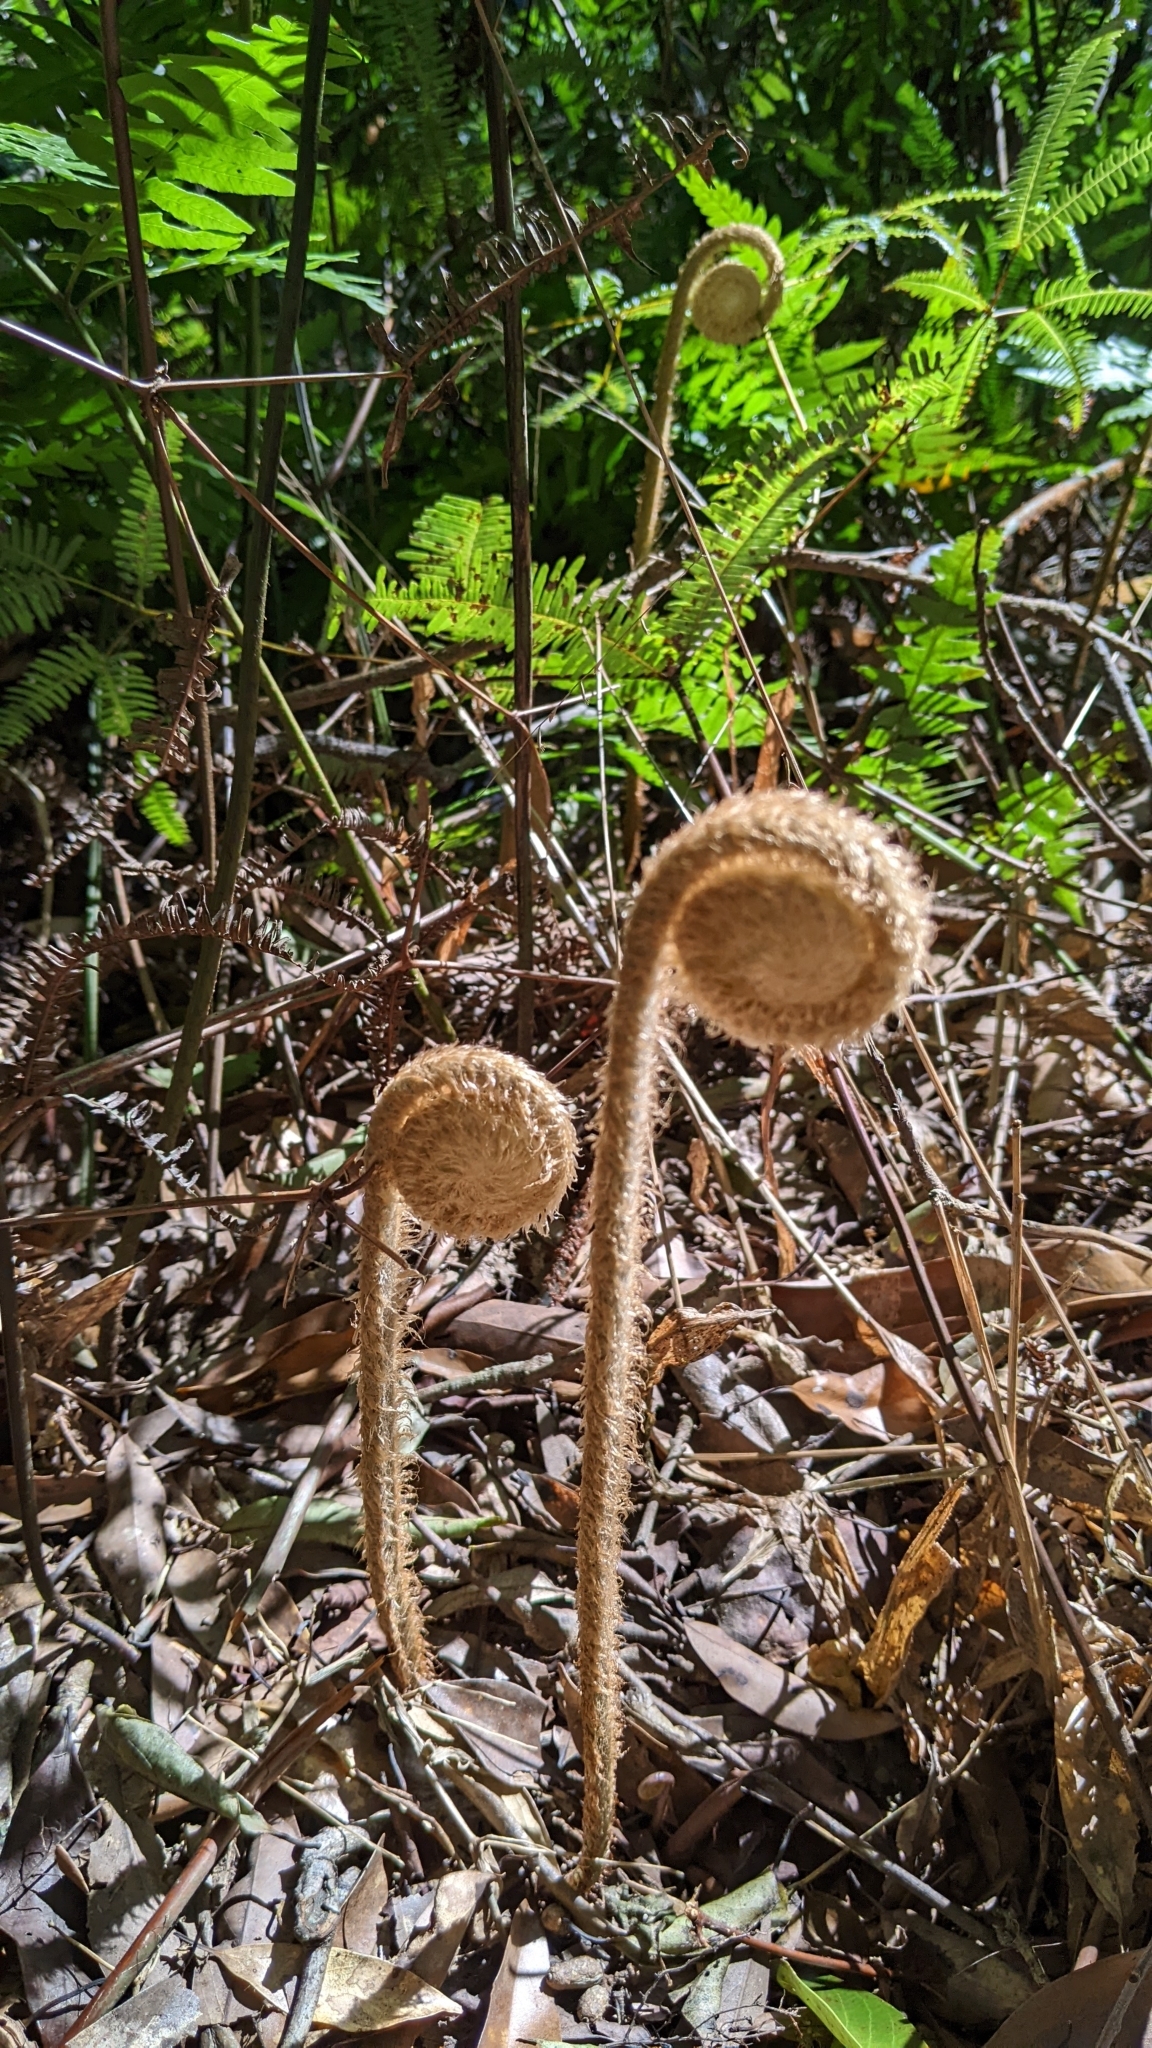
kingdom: Plantae
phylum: Tracheophyta
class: Polypodiopsida
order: Gleicheniales
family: Gleicheniaceae
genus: Diplopterygium
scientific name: Diplopterygium chinense
